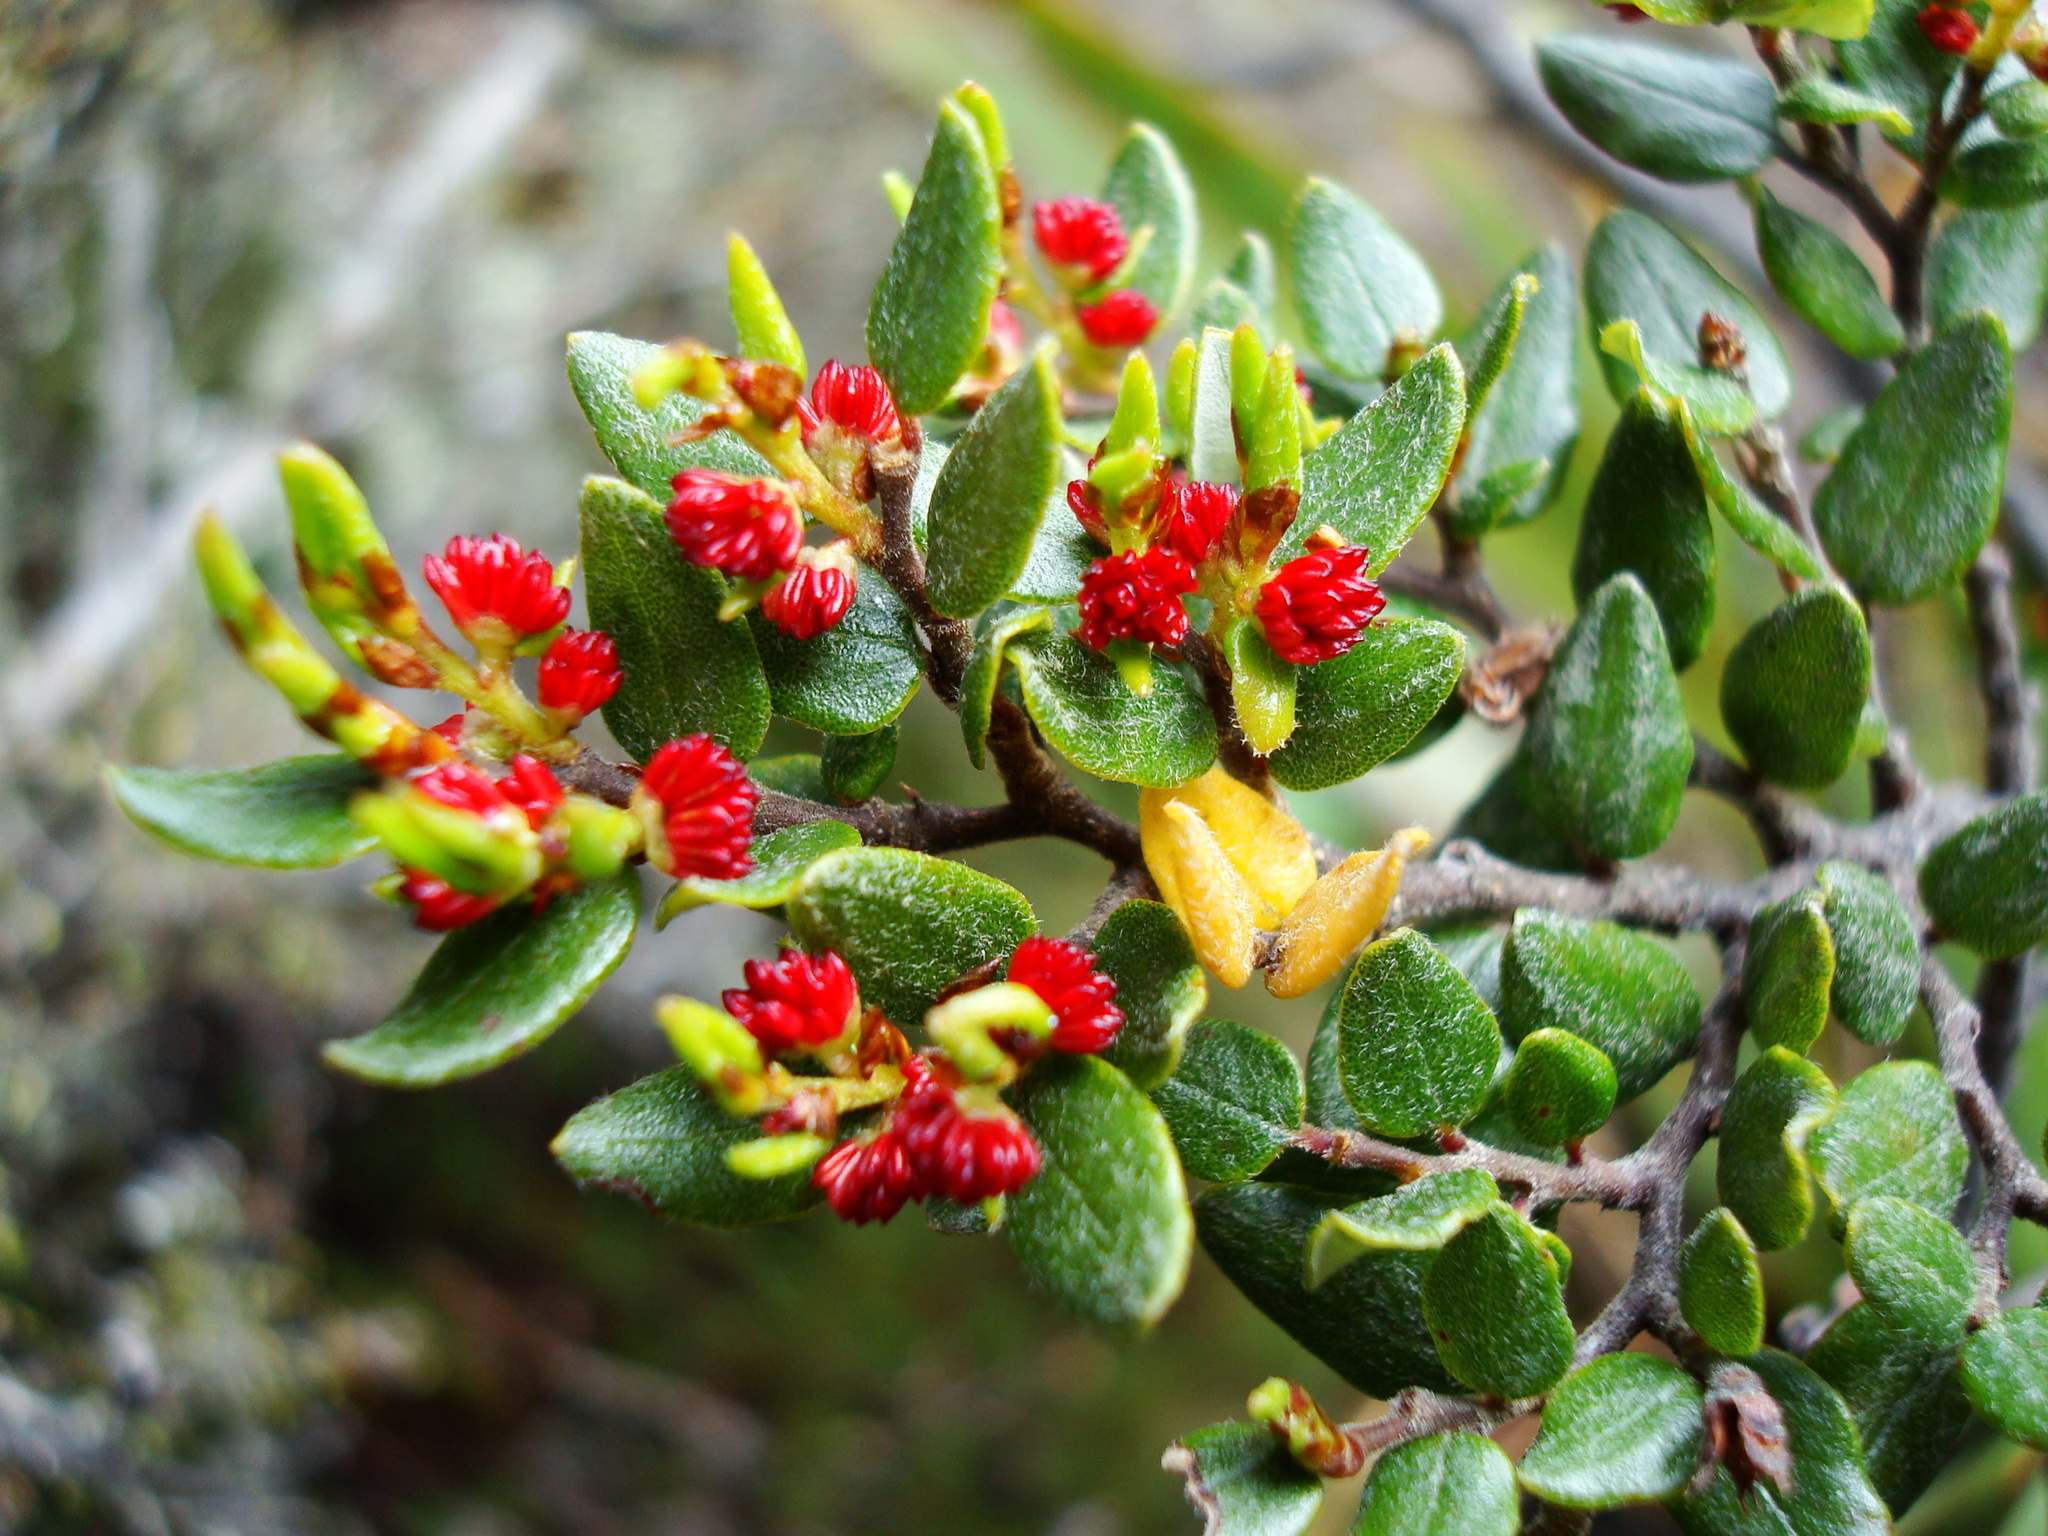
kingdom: Plantae
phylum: Tracheophyta
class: Magnoliopsida
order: Fagales
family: Nothofagaceae
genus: Nothofagus
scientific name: Nothofagus cliffortioides
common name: Mountain beech
